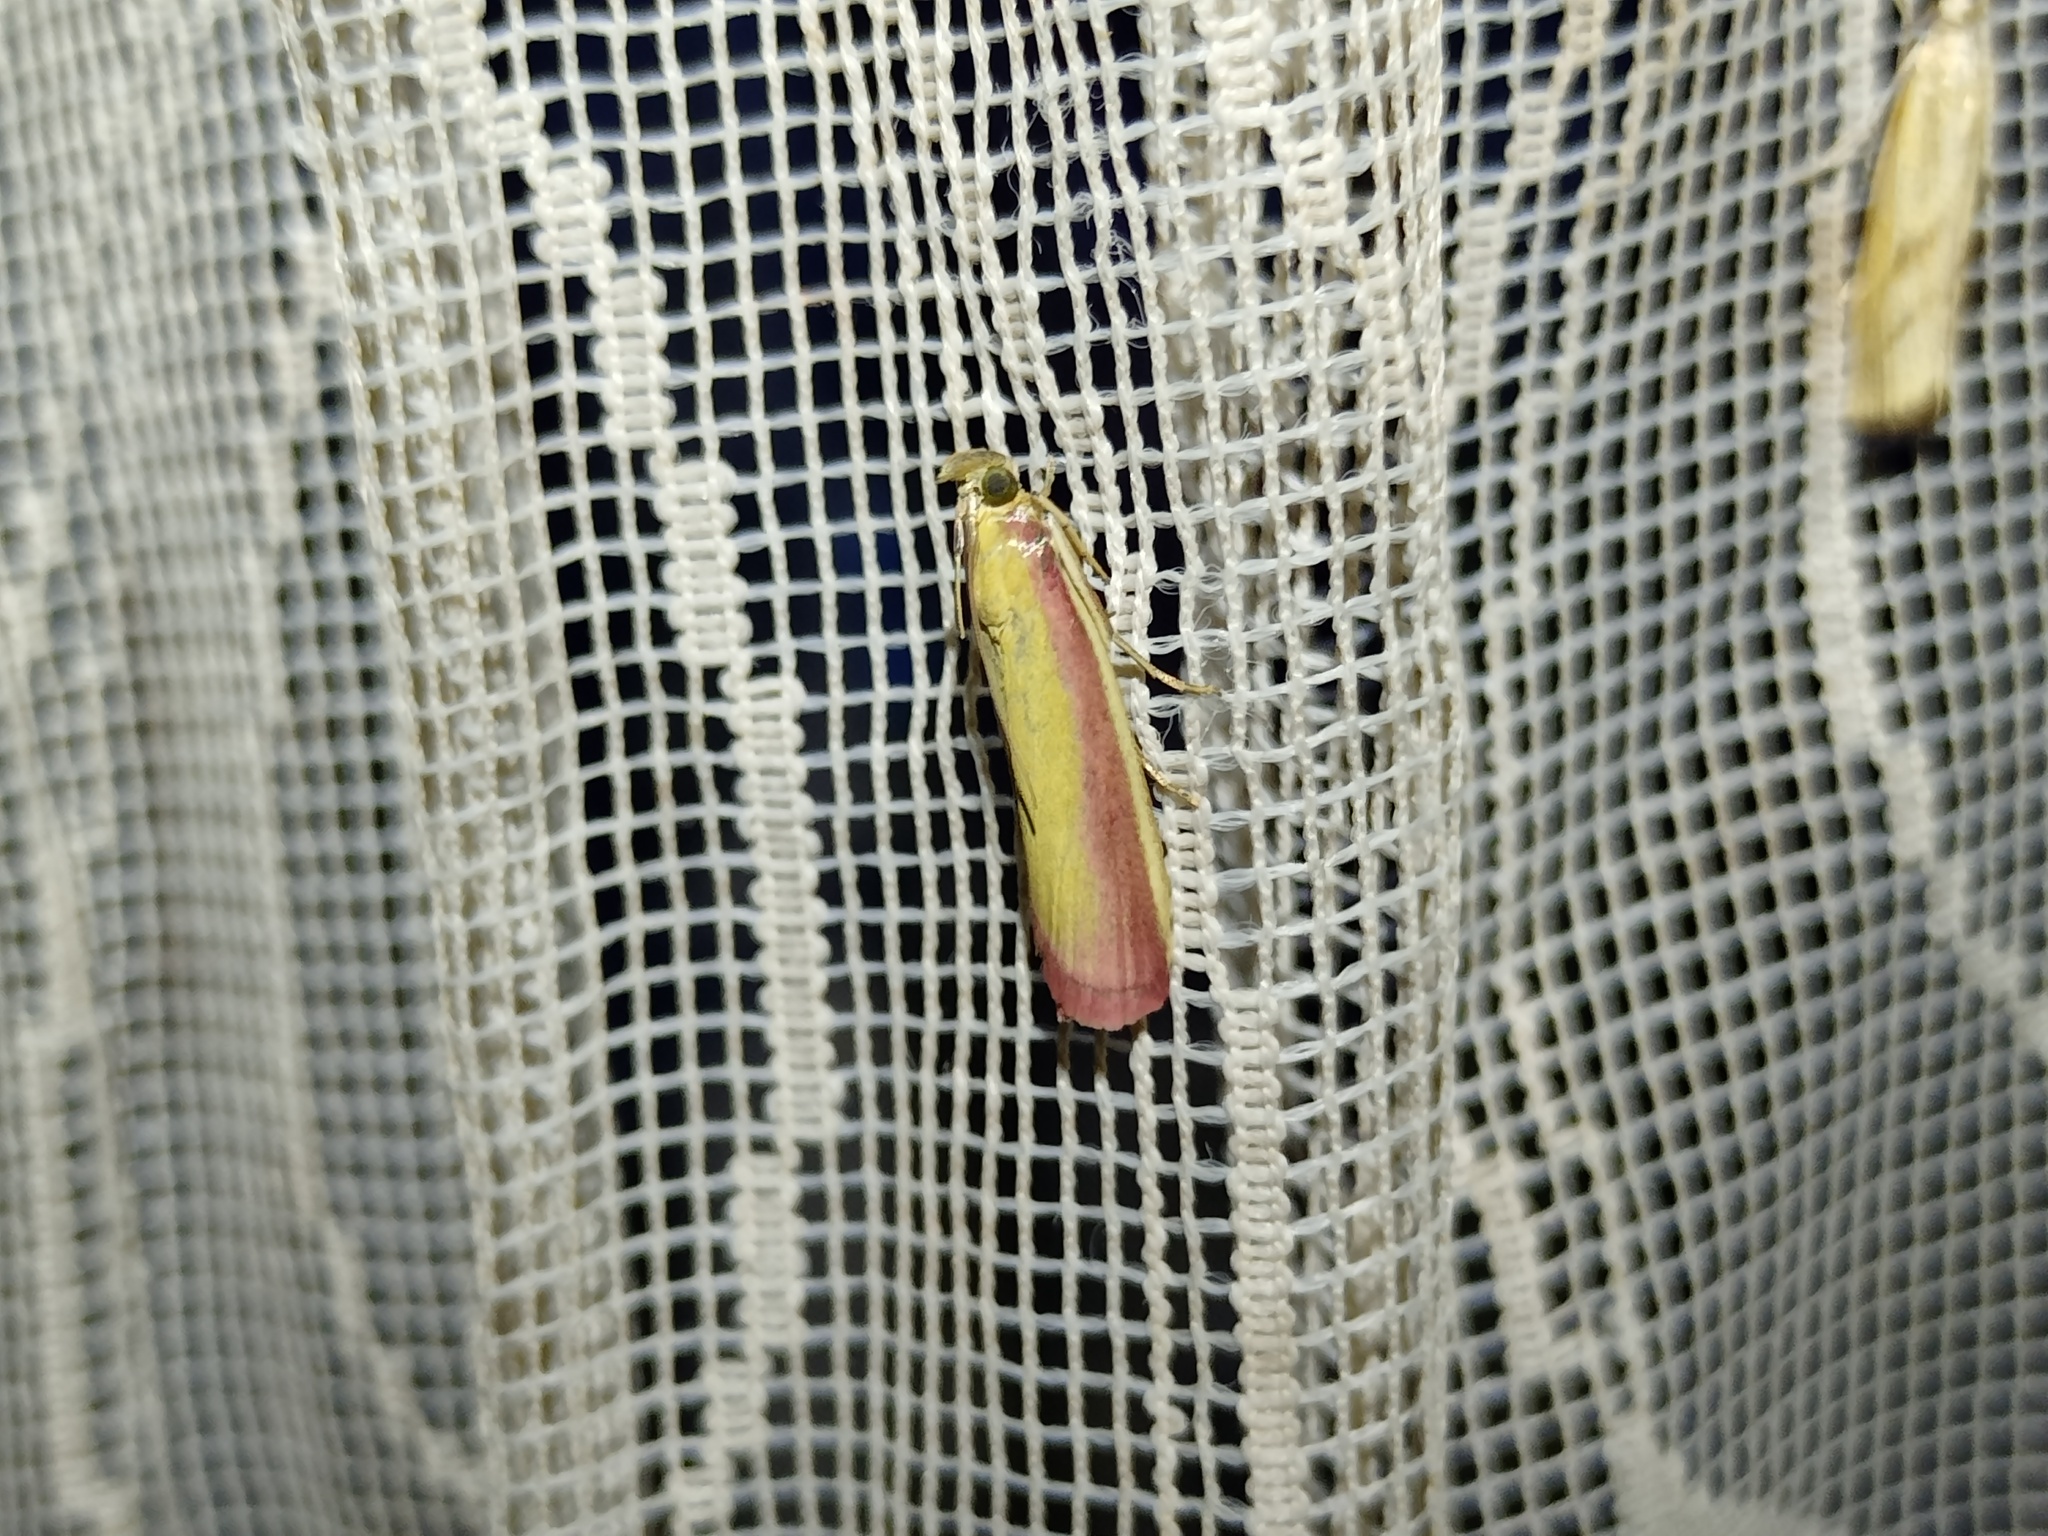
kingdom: Animalia
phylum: Arthropoda
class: Insecta
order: Lepidoptera
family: Pyralidae
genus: Oncocera
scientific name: Oncocera semirubella
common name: Rosy-striped knot-horn
